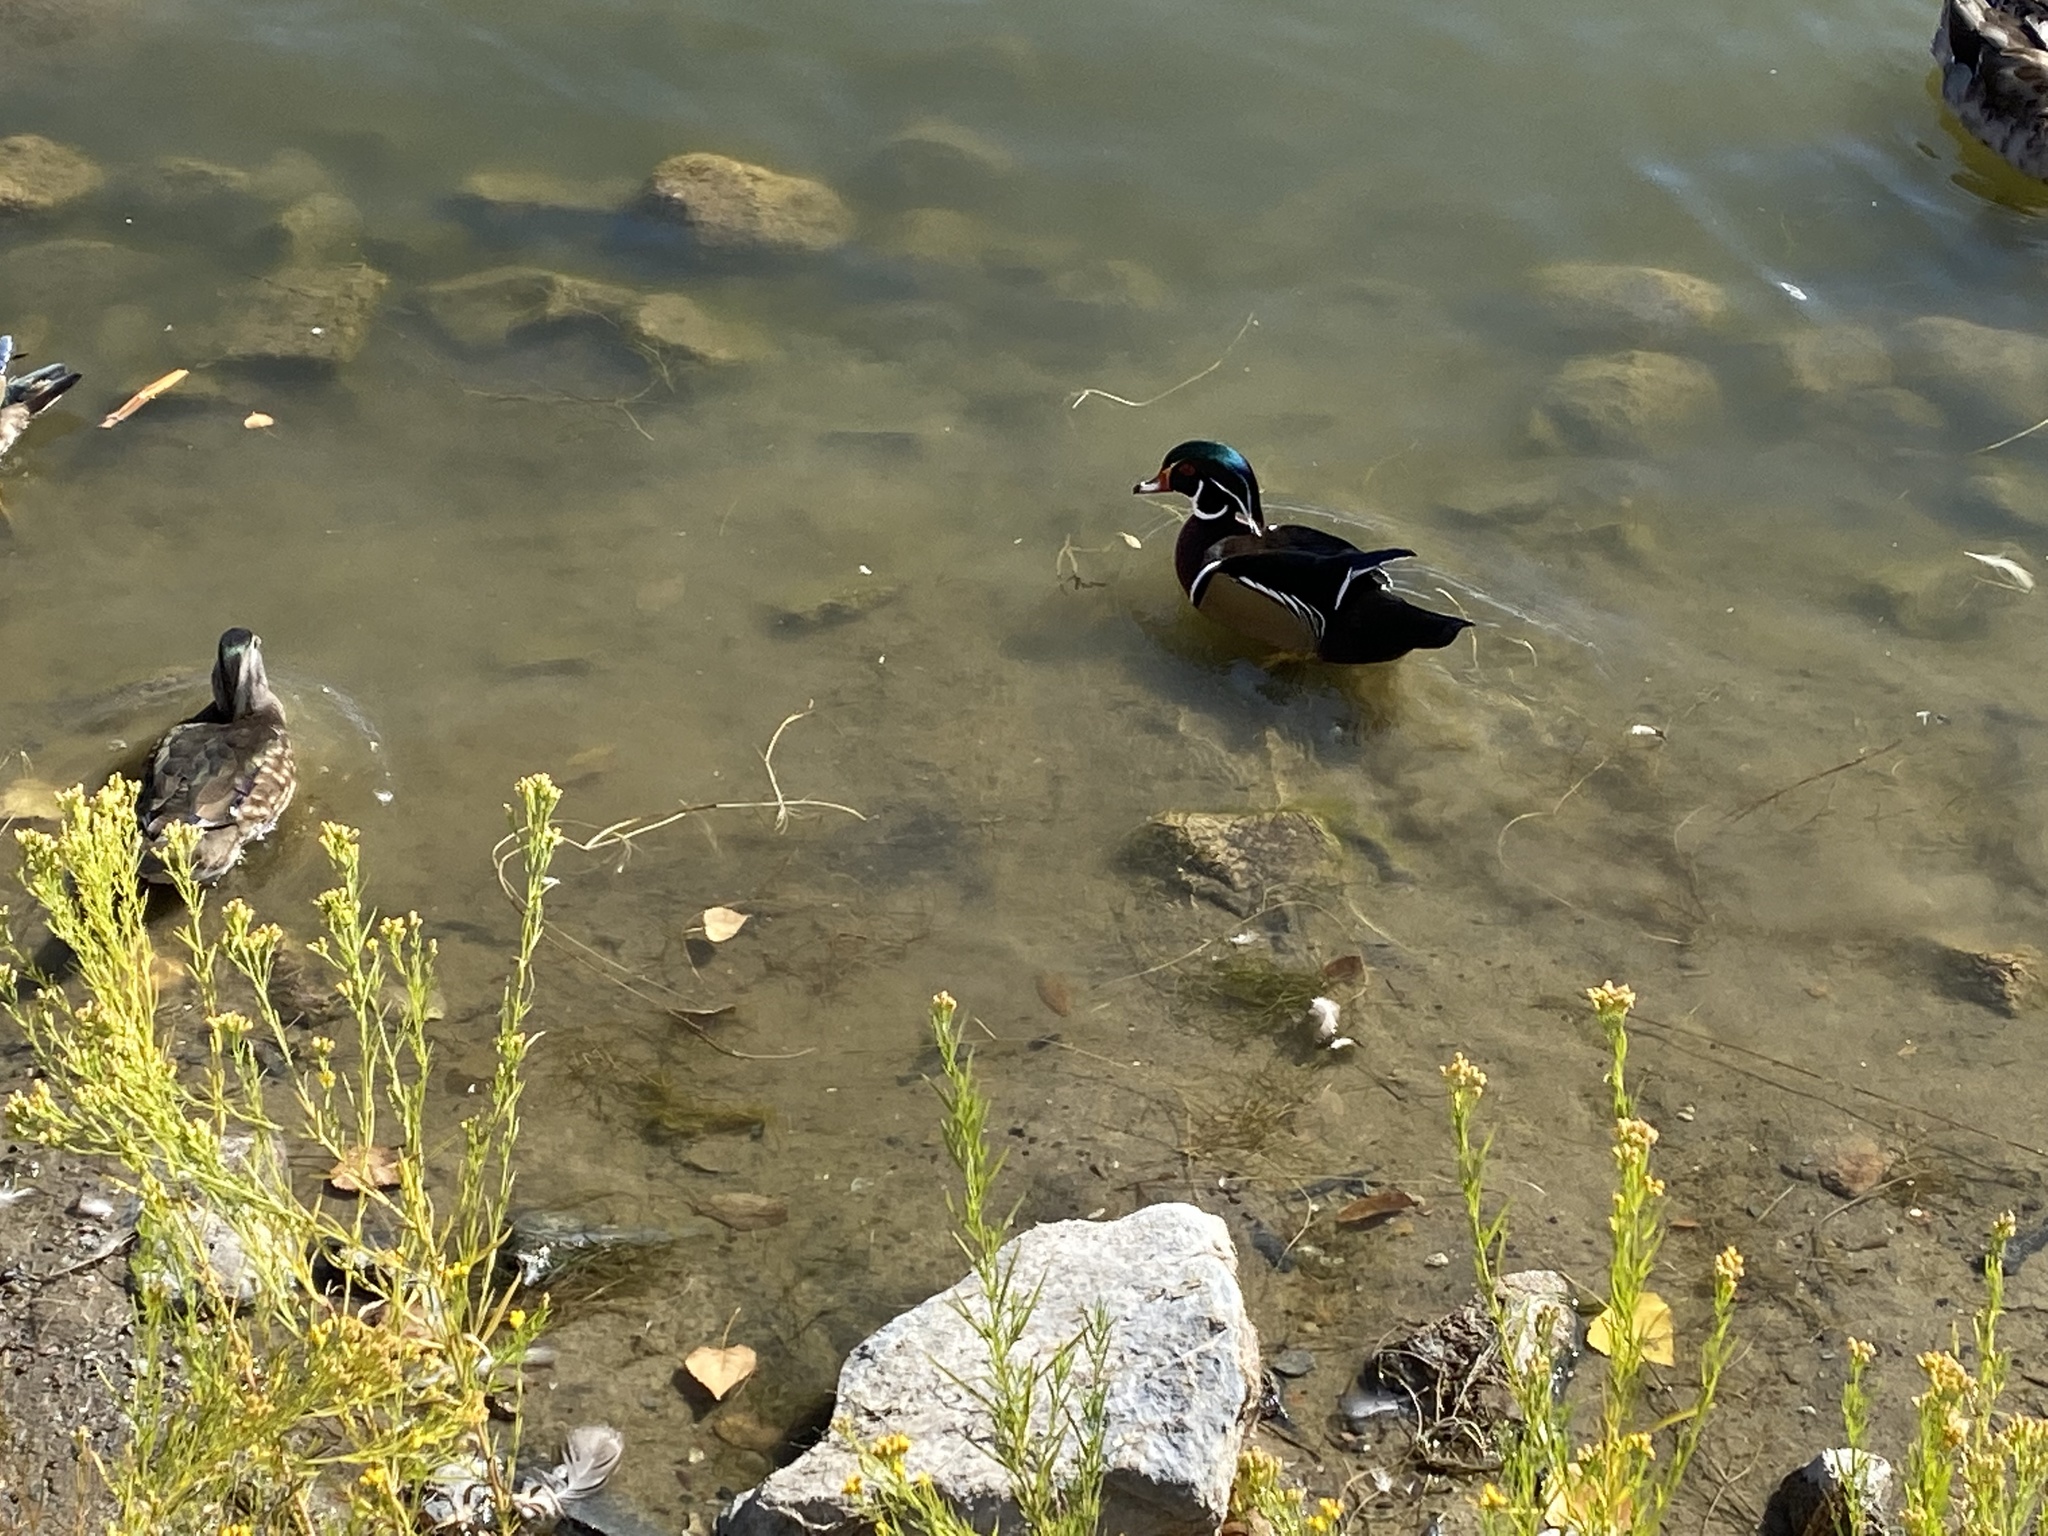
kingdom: Animalia
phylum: Chordata
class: Aves
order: Anseriformes
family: Anatidae
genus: Aix
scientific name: Aix sponsa
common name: Wood duck
